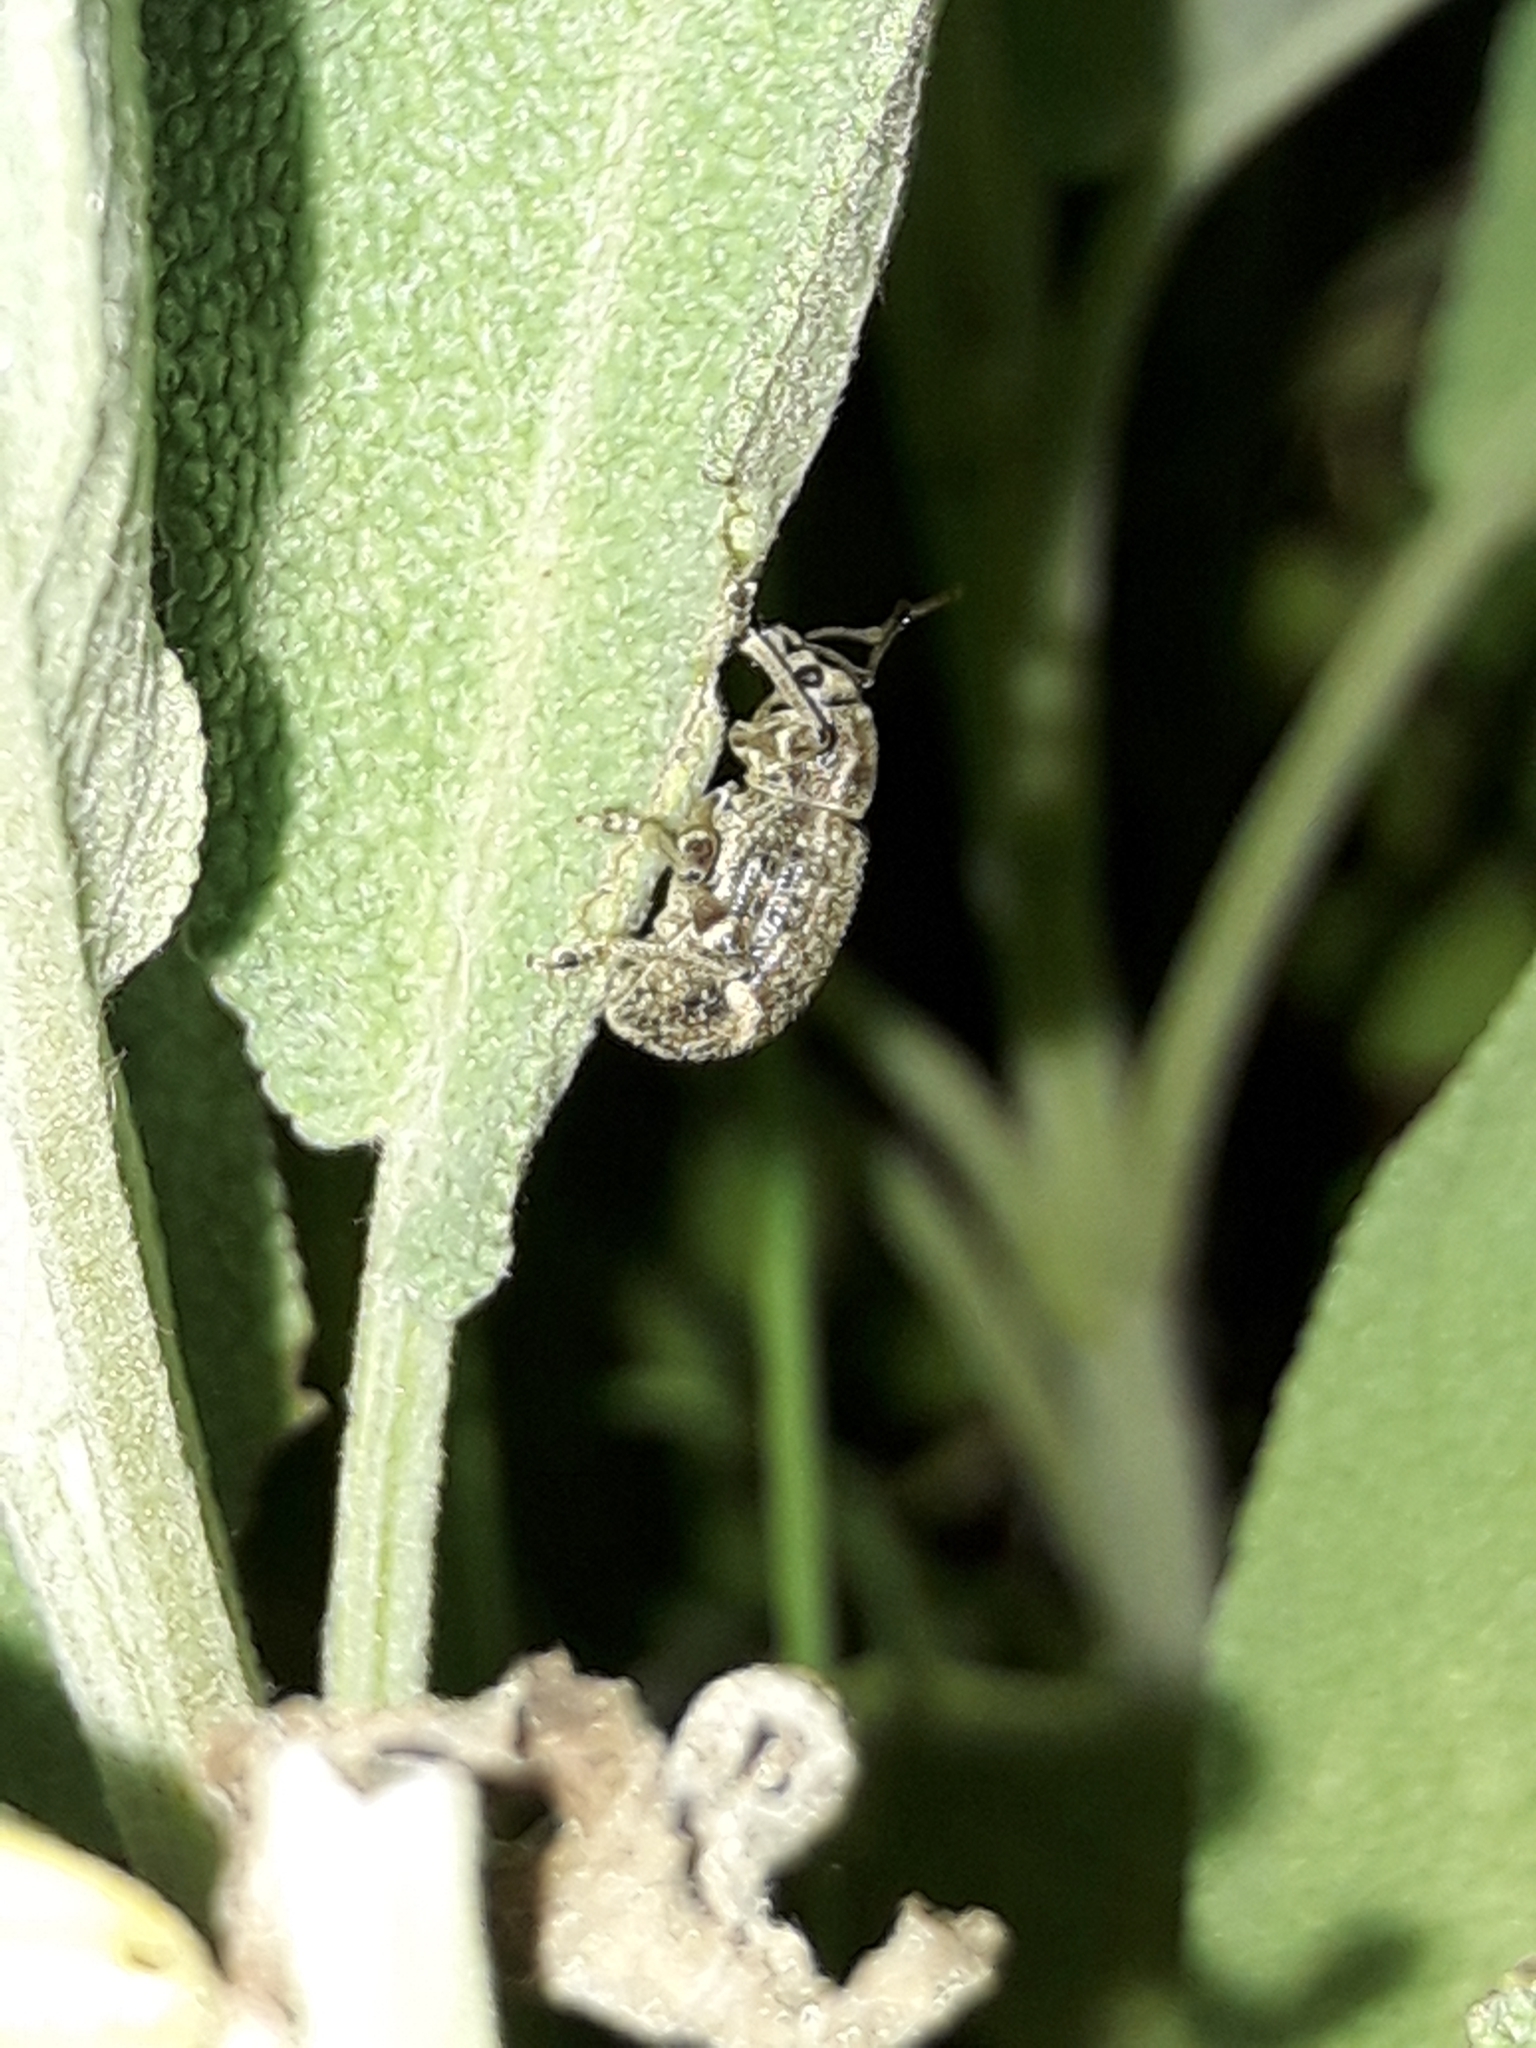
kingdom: Animalia
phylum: Arthropoda
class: Insecta
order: Coleoptera
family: Curculionidae
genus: Phlyctinus
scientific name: Phlyctinus callosus
